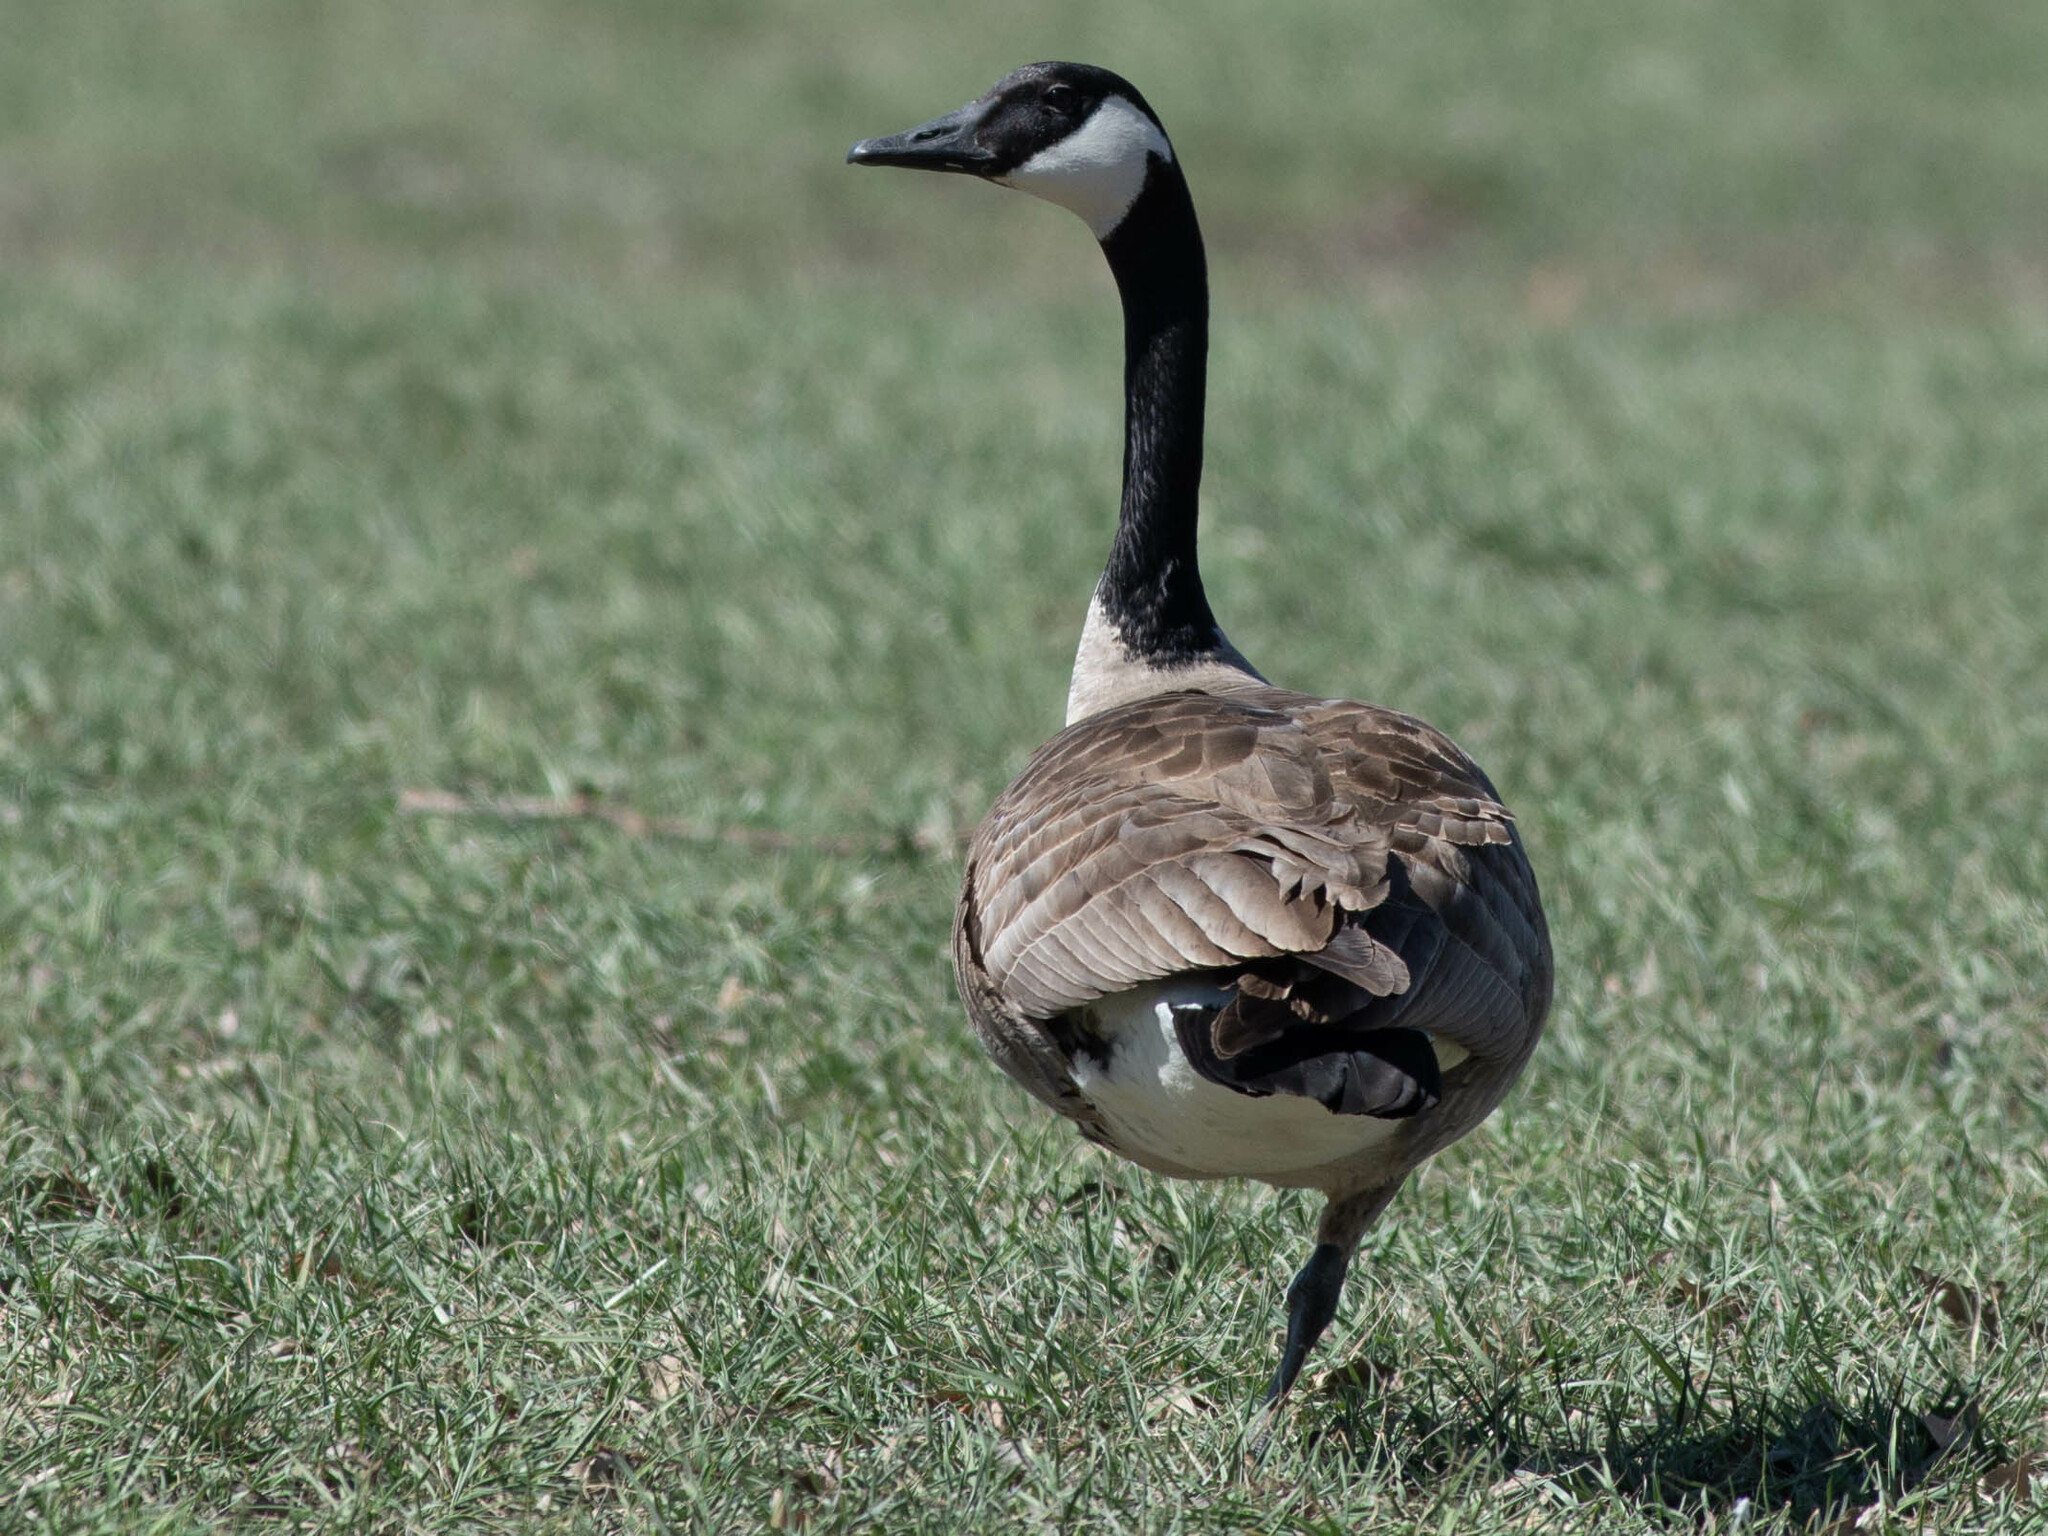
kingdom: Animalia
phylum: Chordata
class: Aves
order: Anseriformes
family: Anatidae
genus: Branta
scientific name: Branta canadensis
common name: Canada goose
